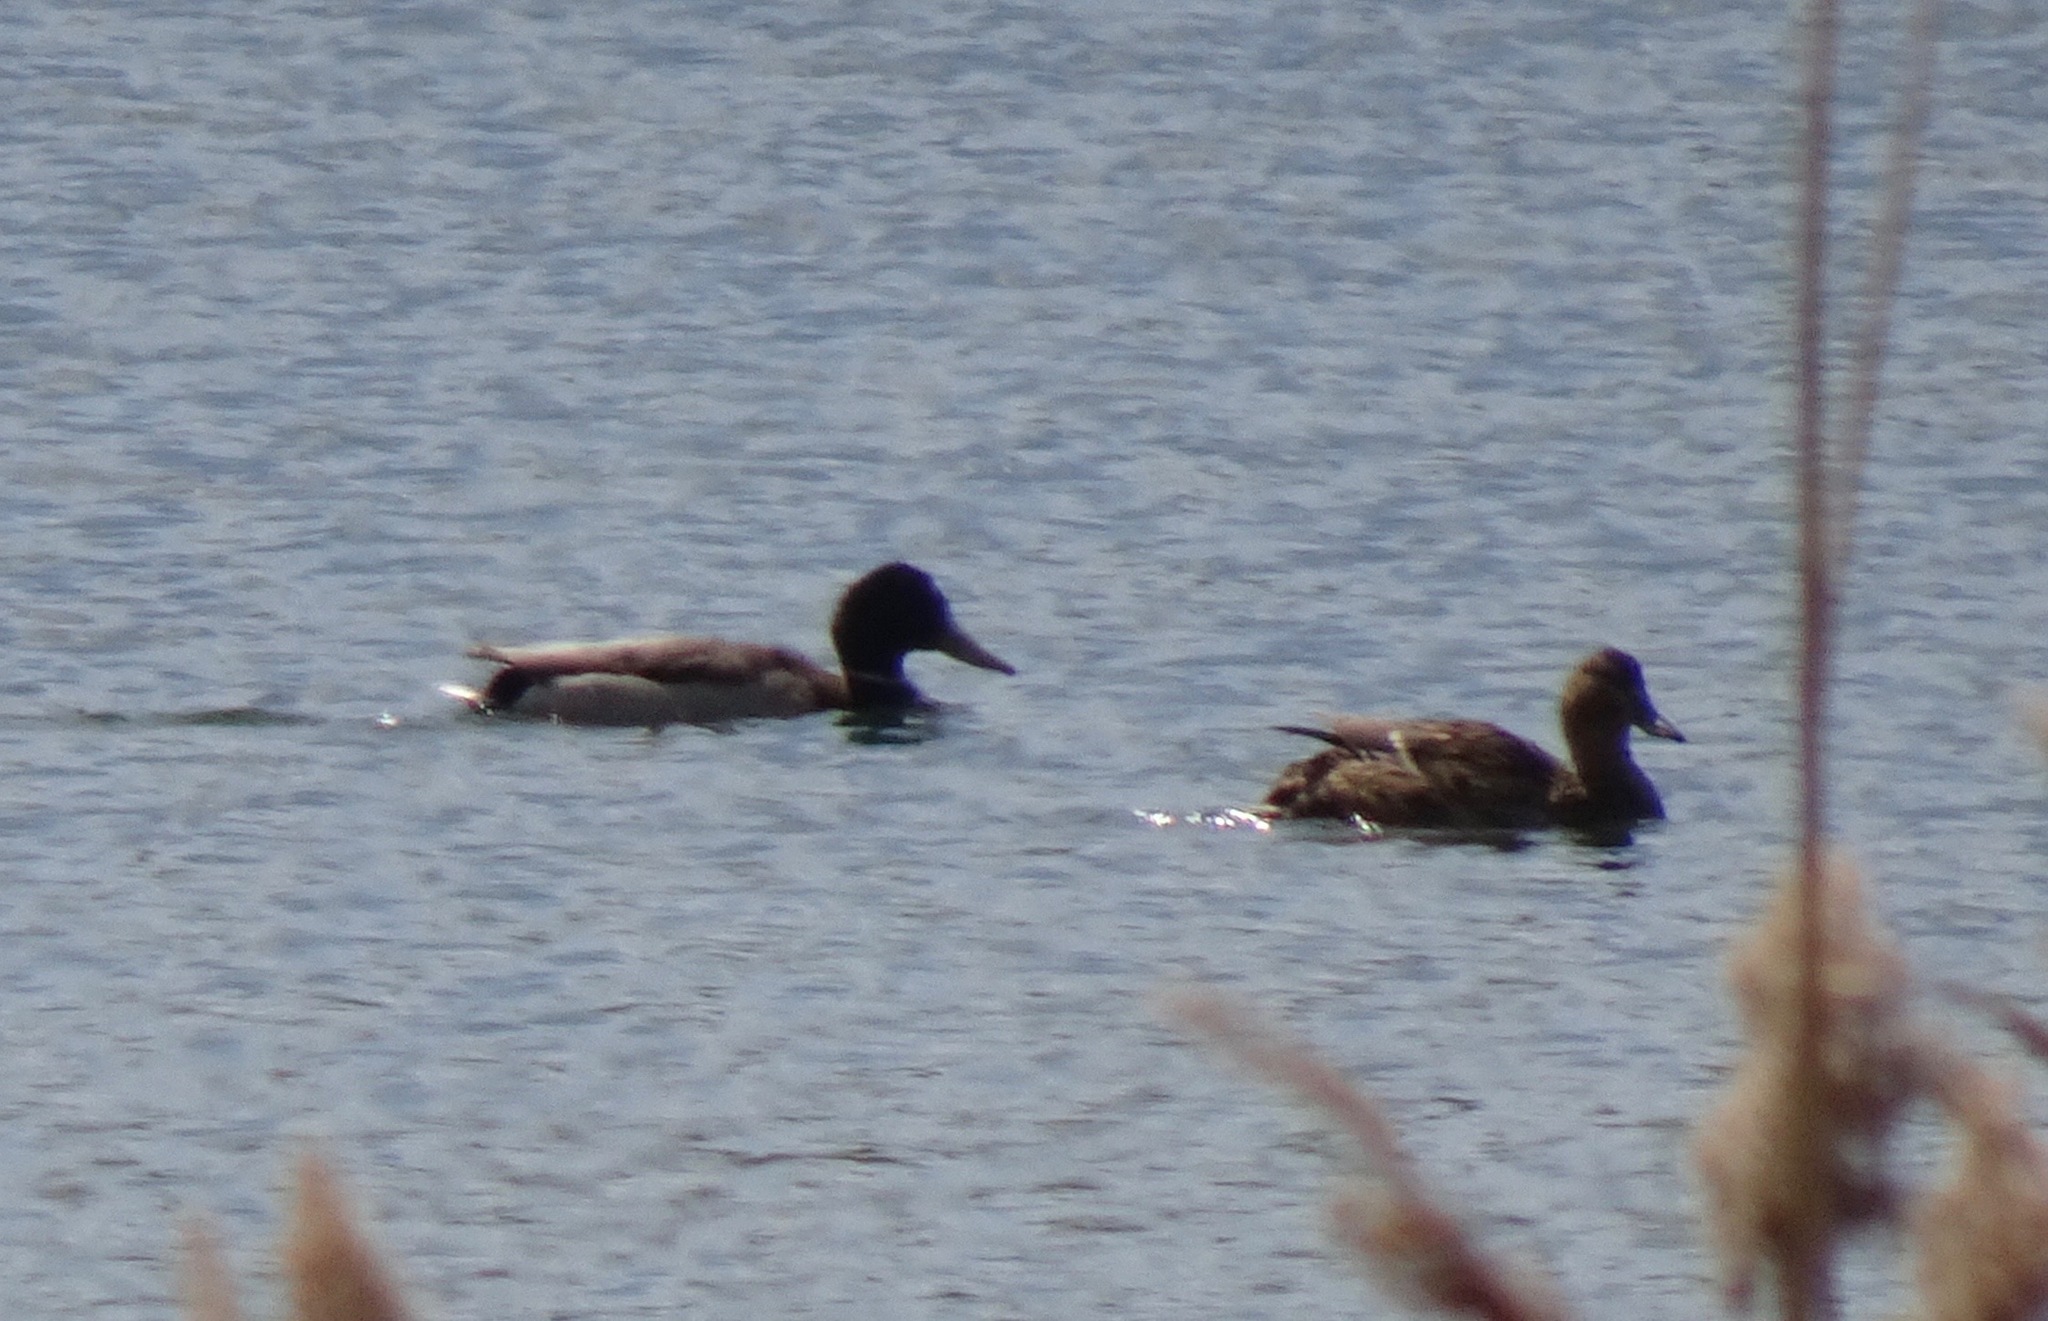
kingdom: Animalia
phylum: Chordata
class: Aves
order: Anseriformes
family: Anatidae
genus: Anas
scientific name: Anas platyrhynchos
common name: Mallard
